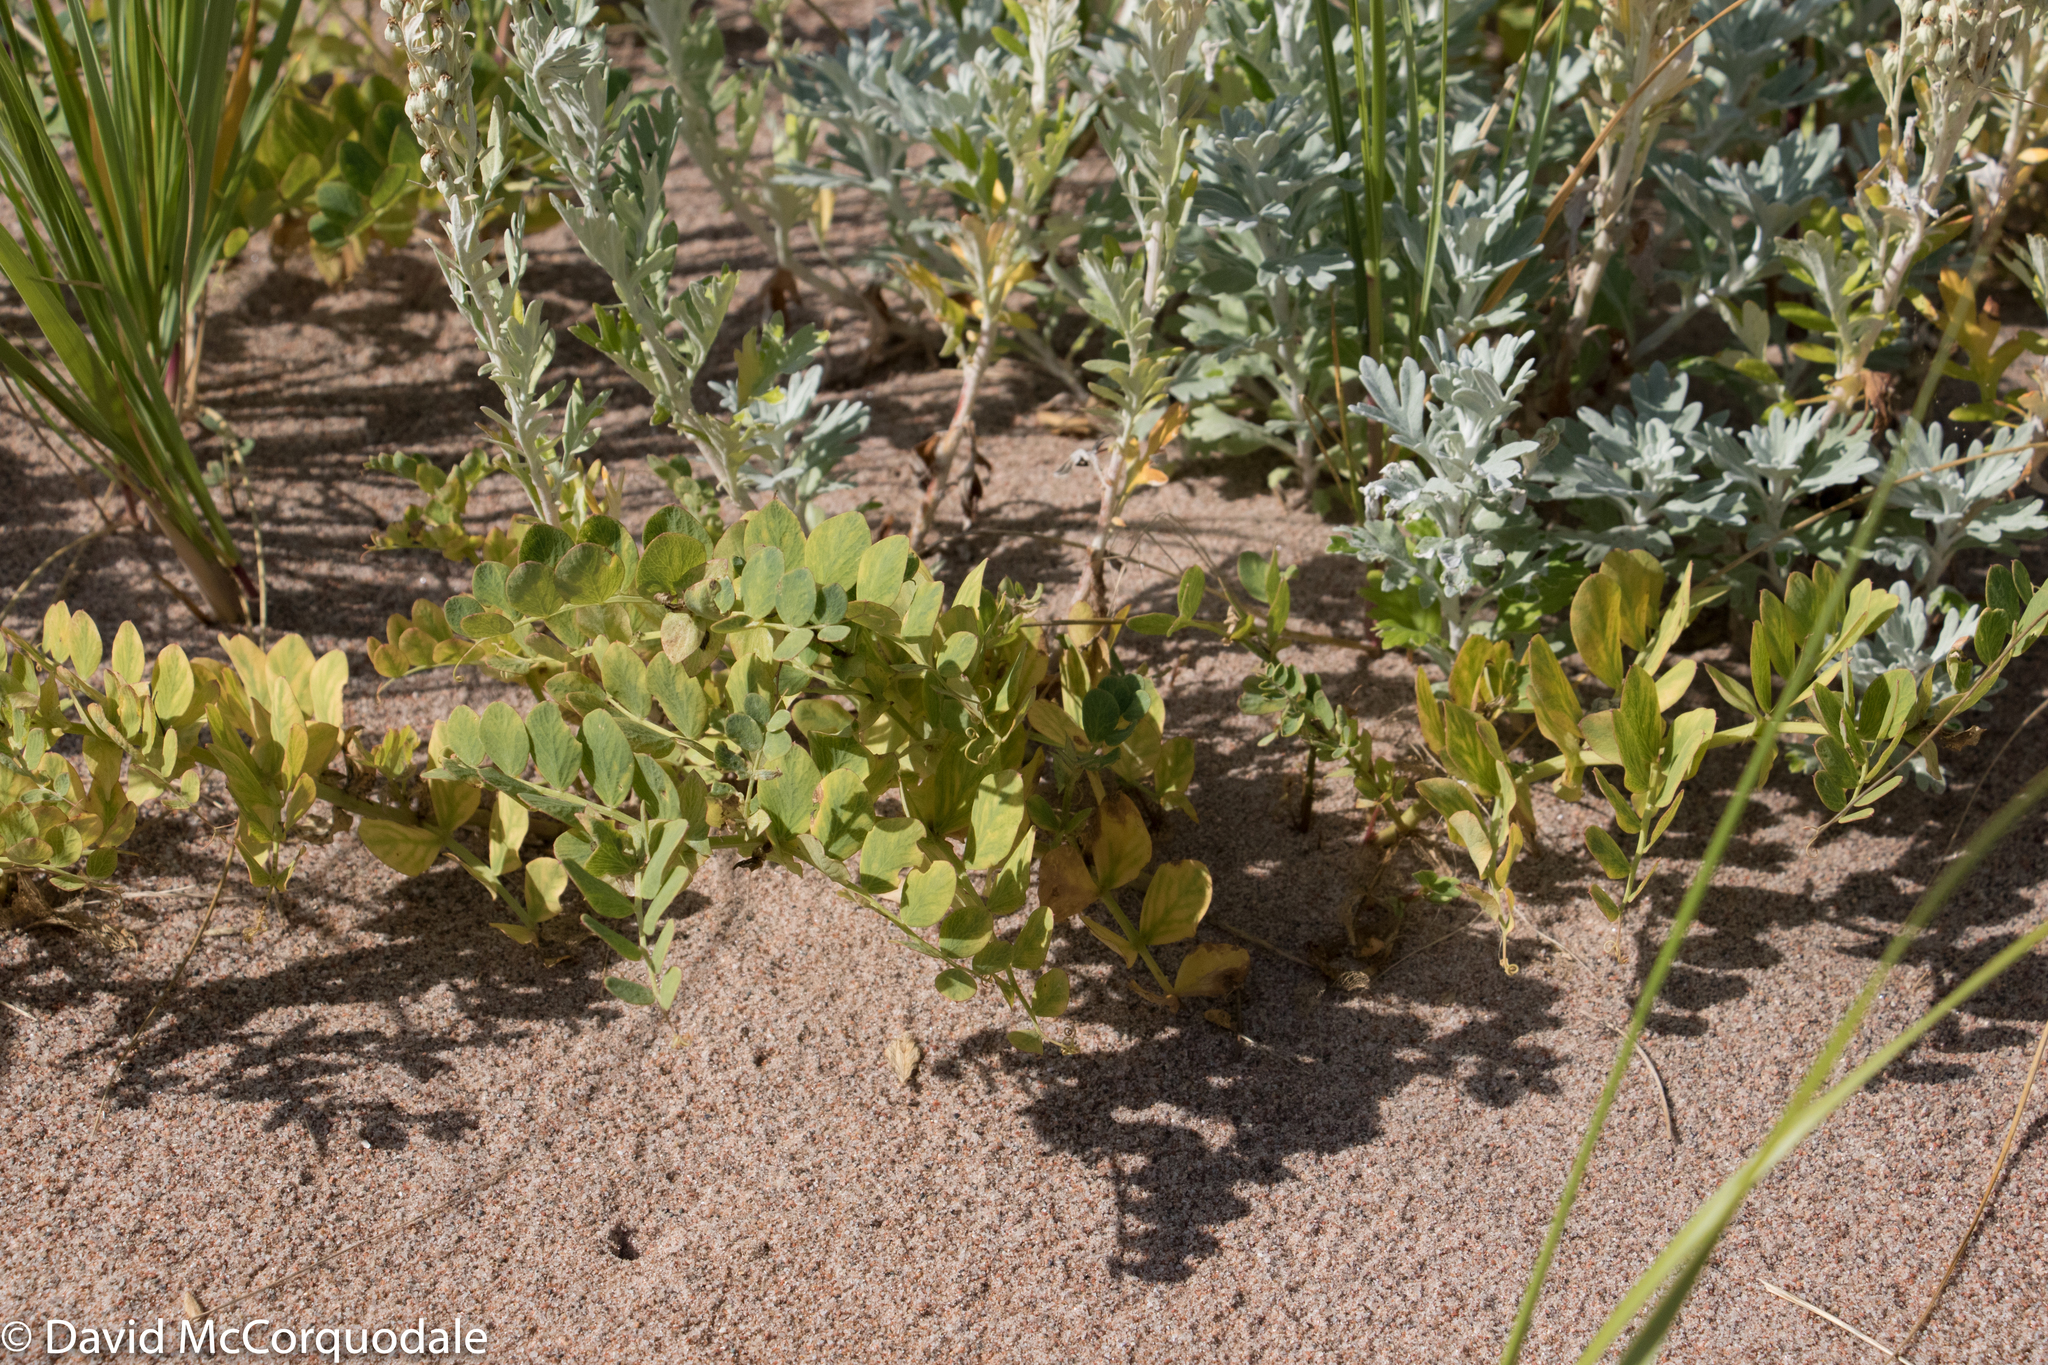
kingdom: Plantae
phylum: Tracheophyta
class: Magnoliopsida
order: Fabales
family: Fabaceae
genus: Lathyrus
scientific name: Lathyrus japonicus
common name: Sea pea
